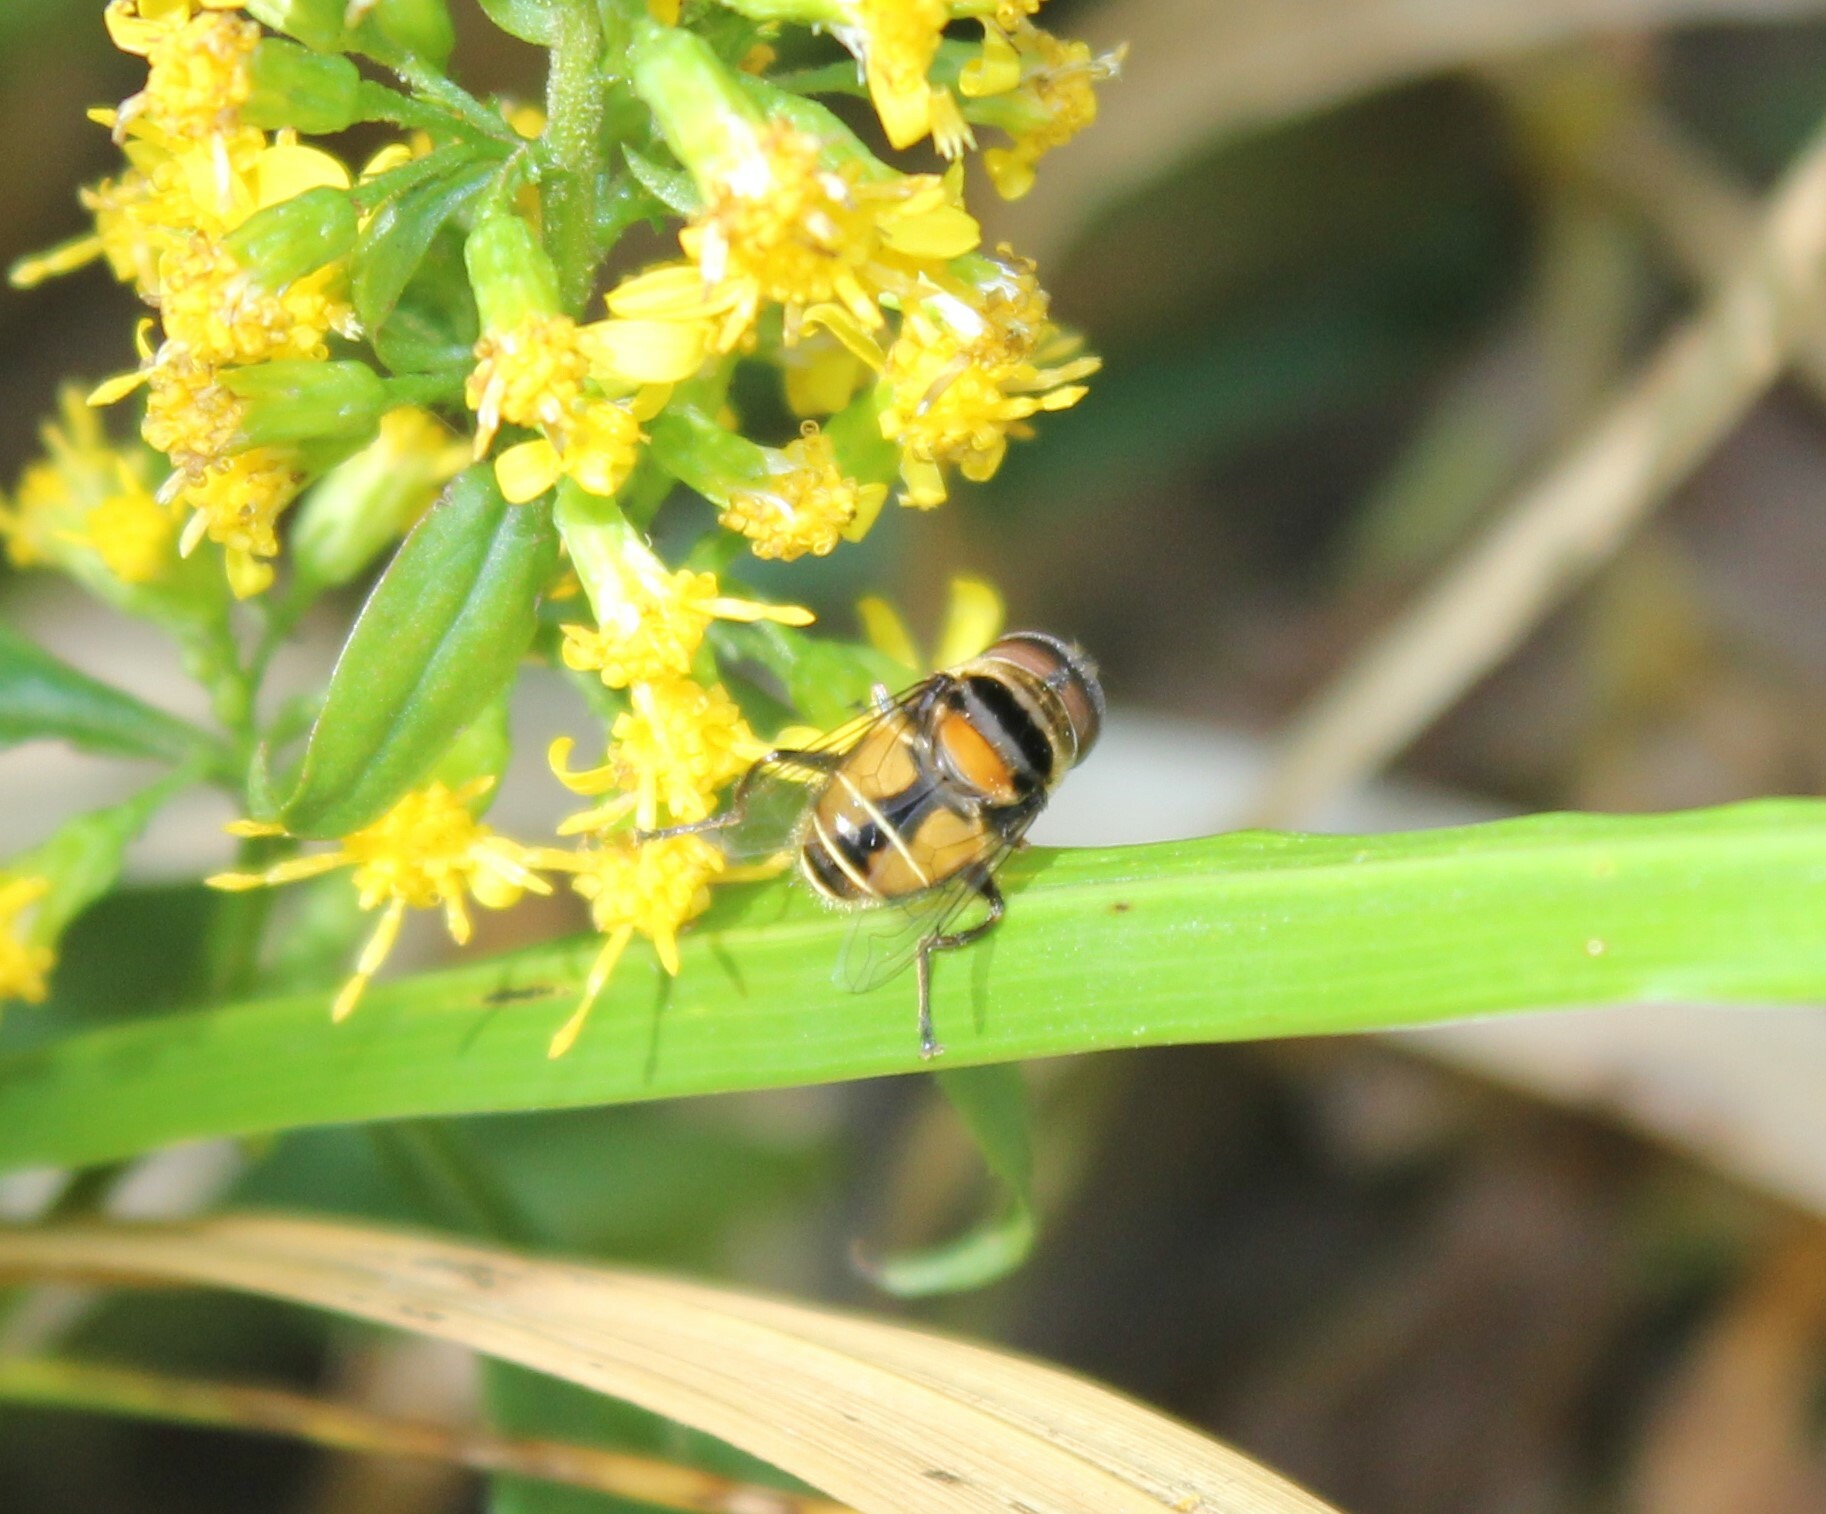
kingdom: Animalia
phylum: Arthropoda
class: Insecta
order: Diptera
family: Syrphidae
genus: Palpada
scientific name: Palpada agrorum
